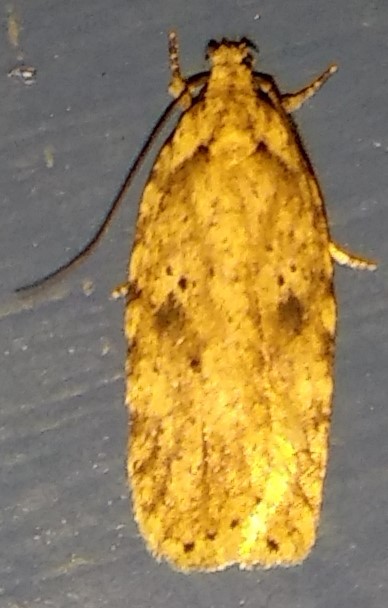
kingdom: Animalia
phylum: Arthropoda
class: Insecta
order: Lepidoptera
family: Depressariidae
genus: Agonopterix
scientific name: Agonopterix pulvipennella
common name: Goldenrod leafffolder
